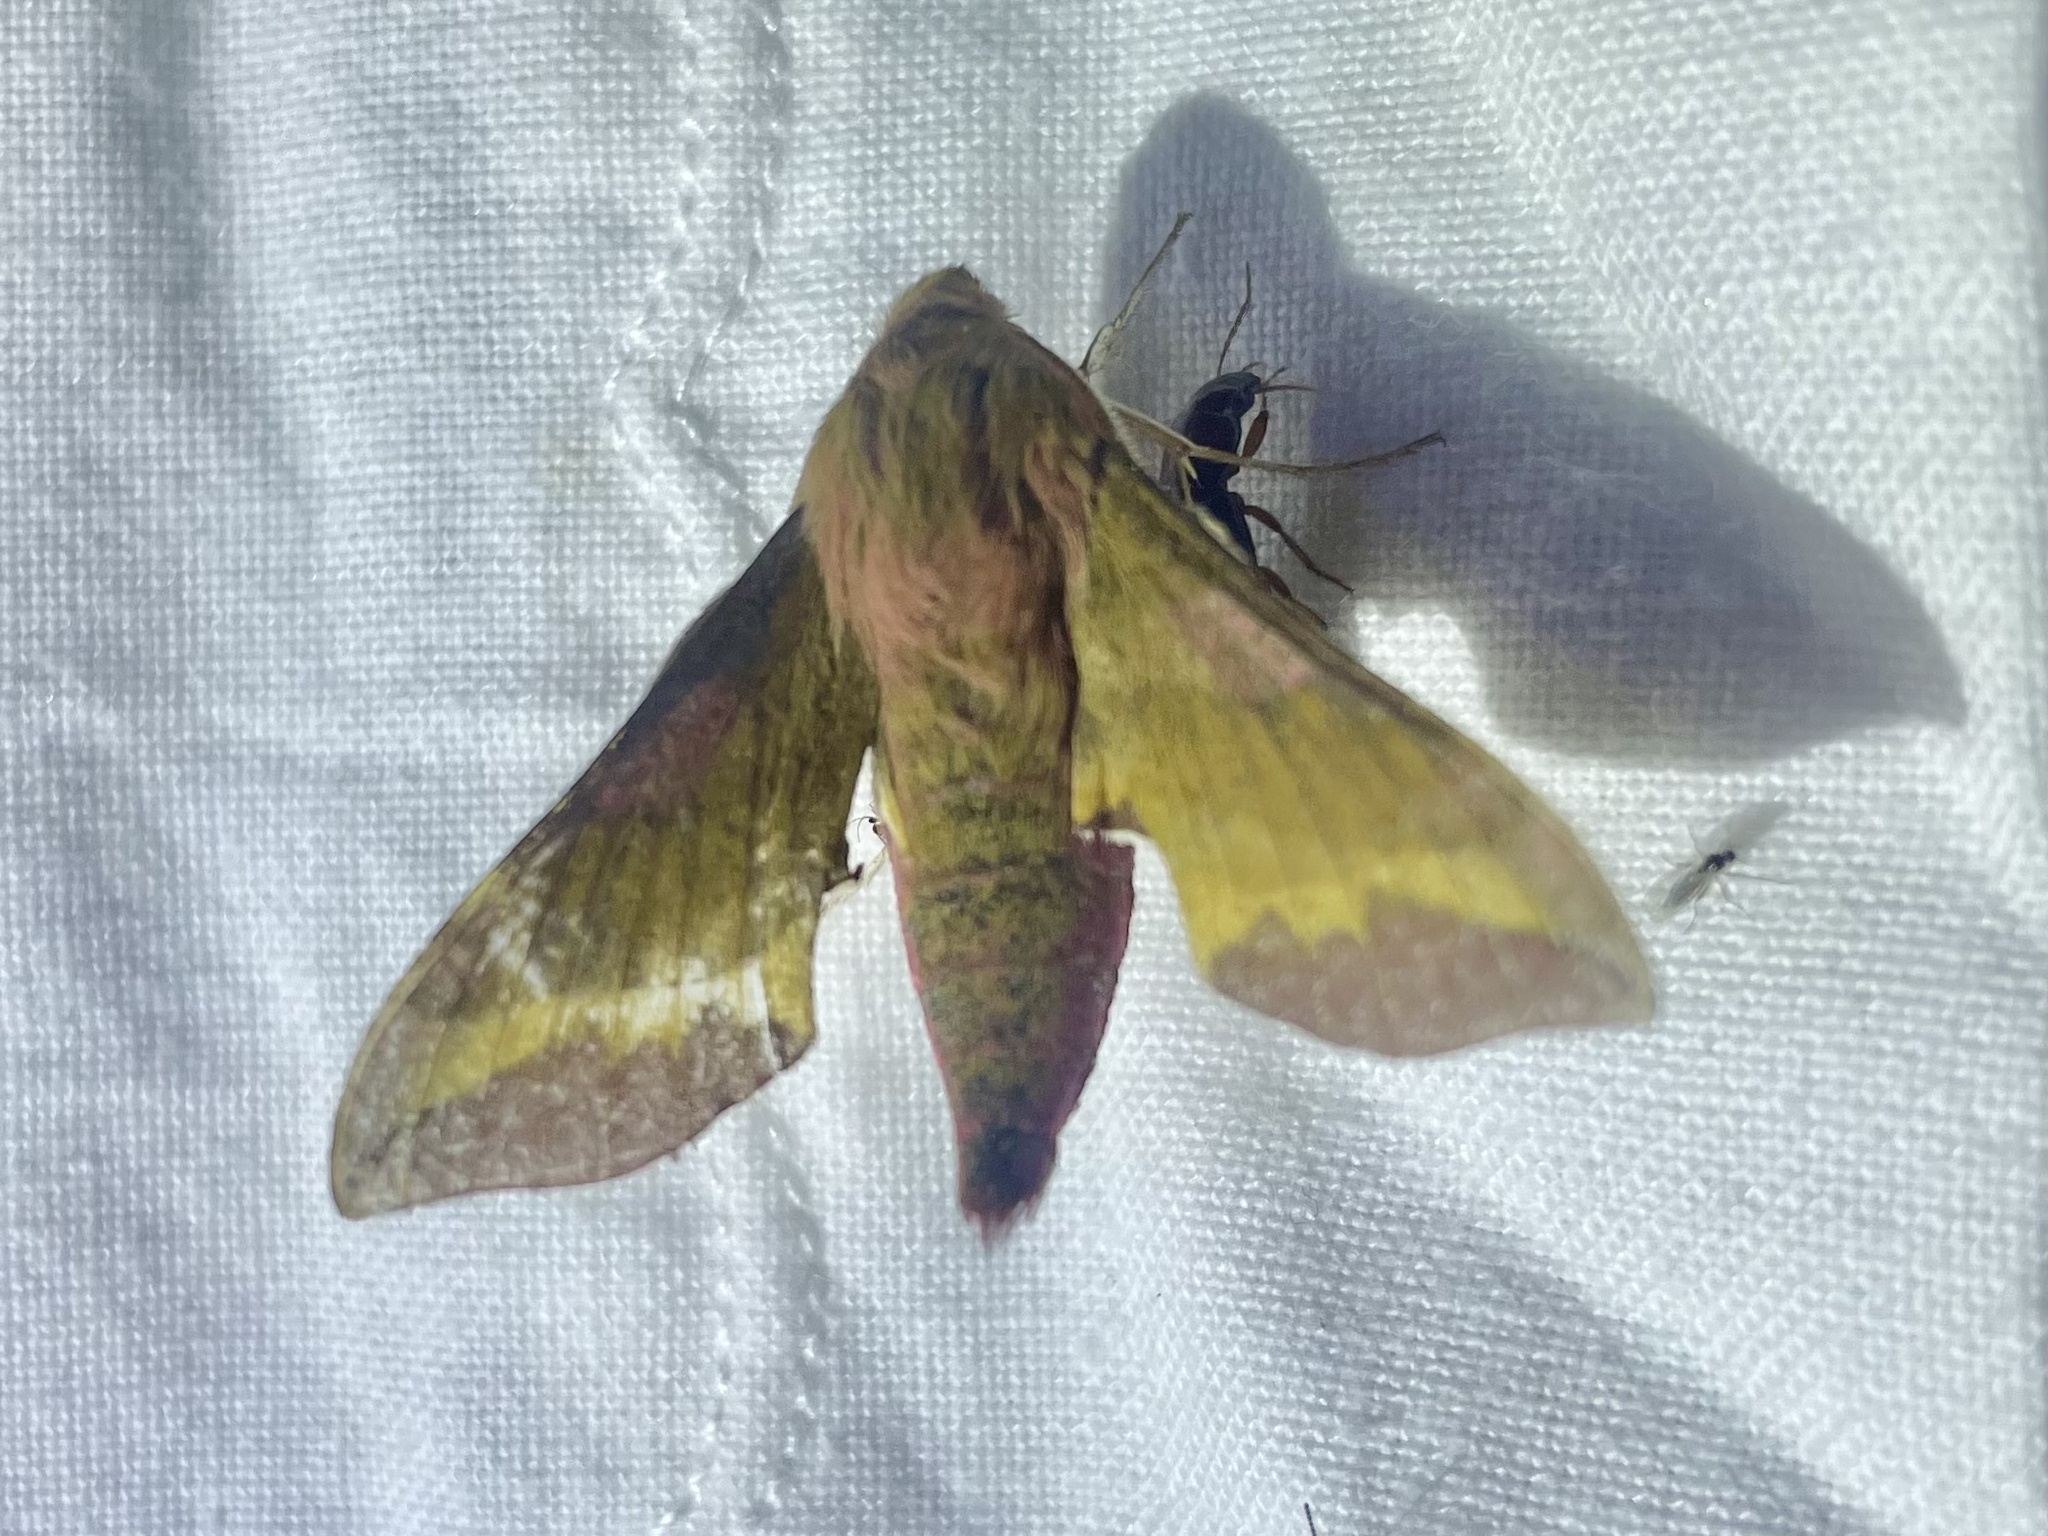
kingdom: Animalia
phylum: Arthropoda
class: Insecta
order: Lepidoptera
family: Sphingidae
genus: Deilephila
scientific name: Deilephila porcellus
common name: Small elephant hawk-moth
